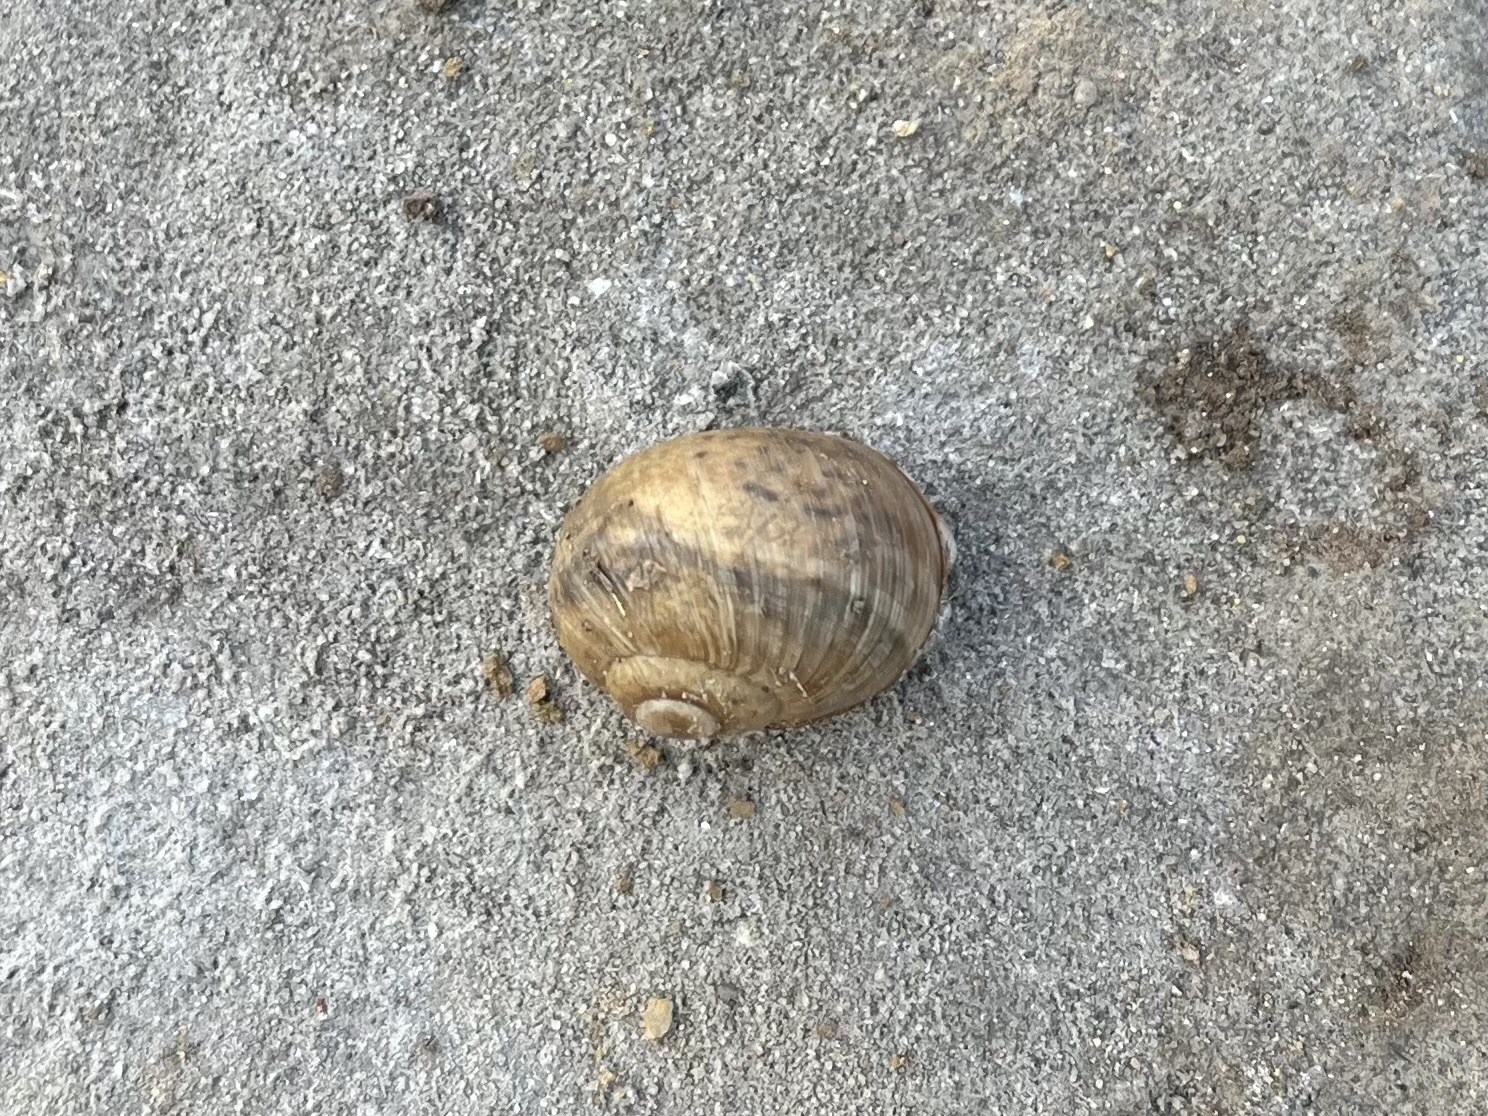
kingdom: Animalia
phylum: Mollusca
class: Gastropoda
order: Stylommatophora
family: Helicidae
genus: Helix
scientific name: Helix pomatia
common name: Roman snail
